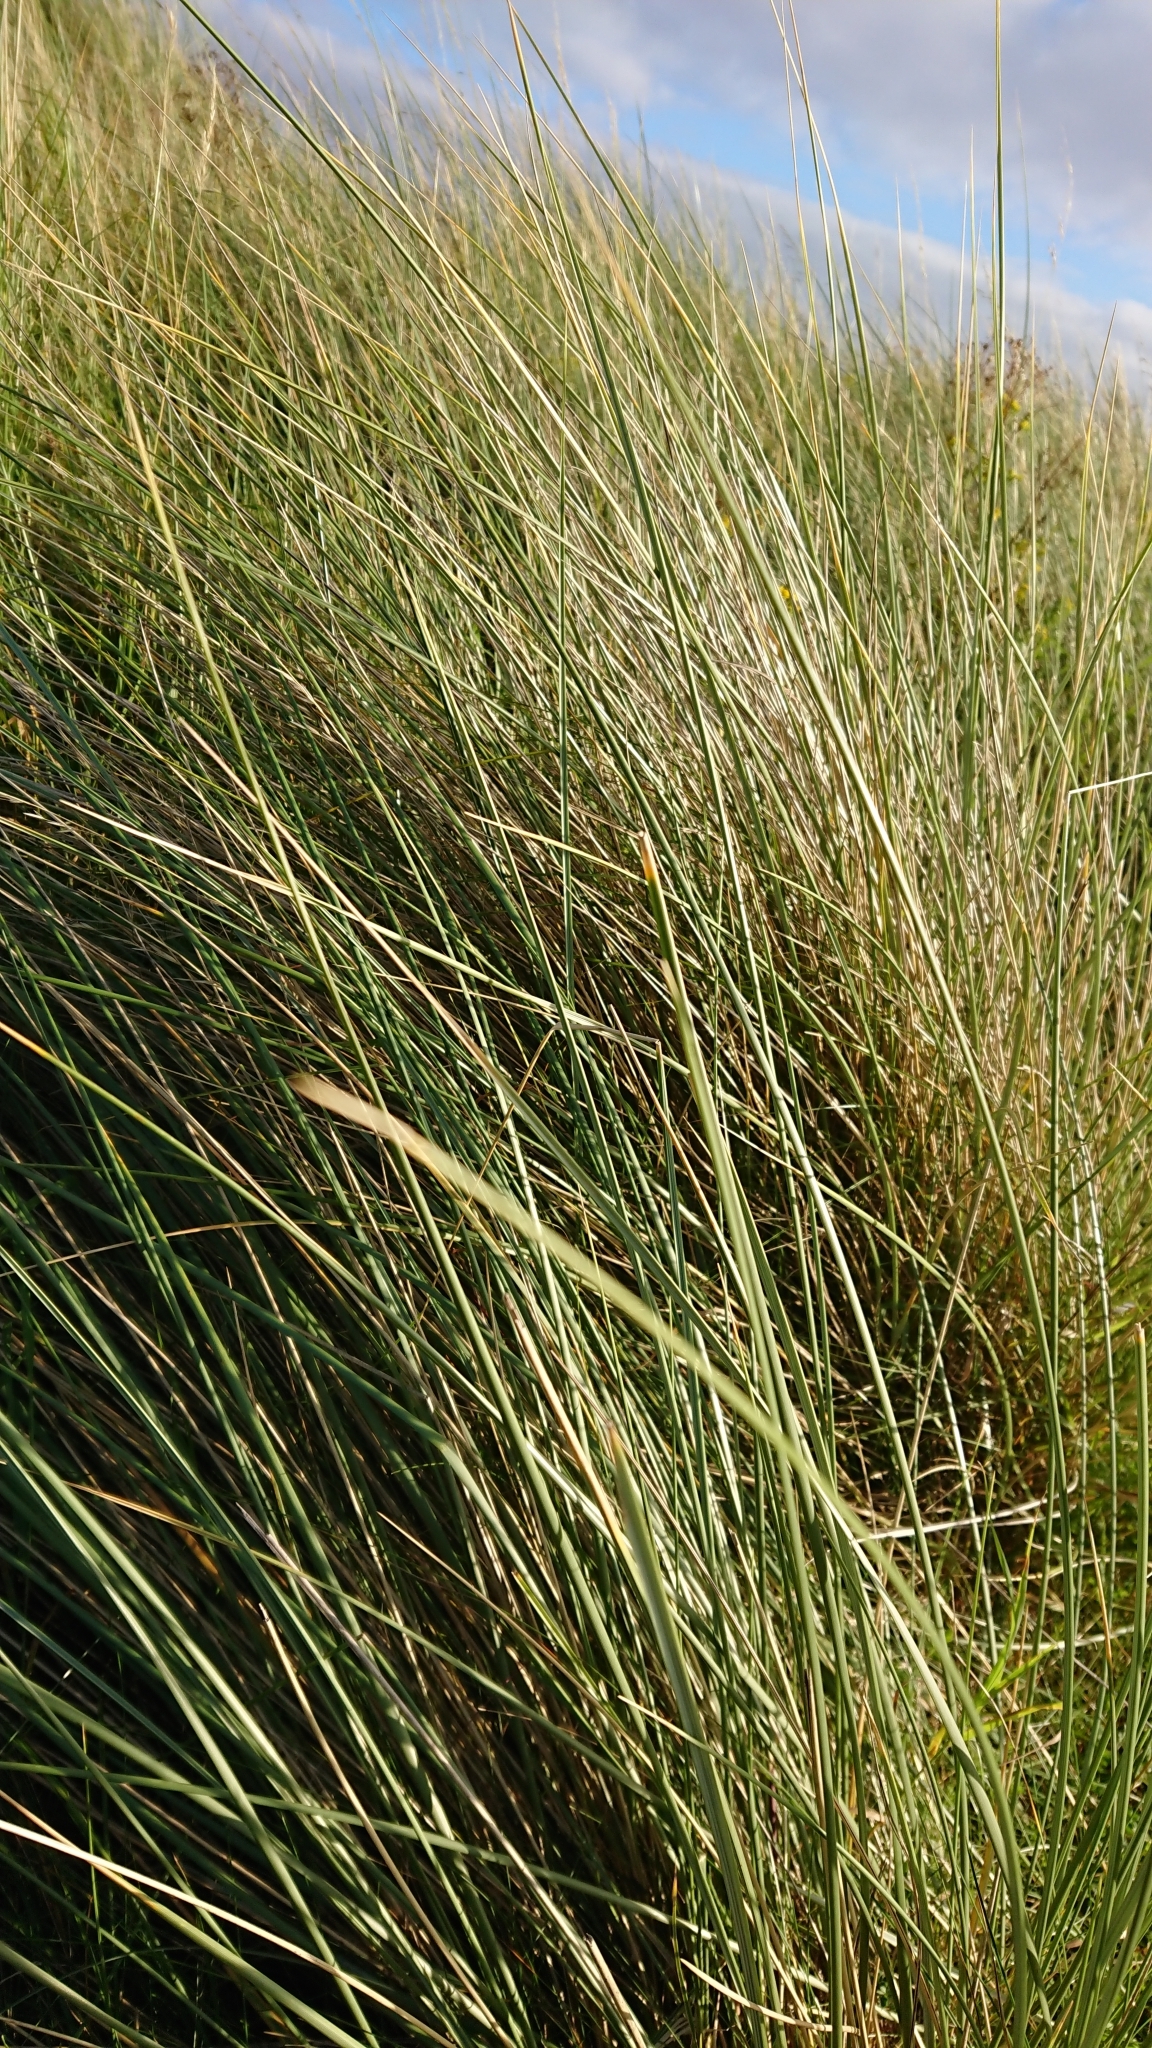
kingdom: Plantae
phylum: Tracheophyta
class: Liliopsida
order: Poales
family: Poaceae
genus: Calamagrostis
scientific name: Calamagrostis arenaria
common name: European beachgrass
